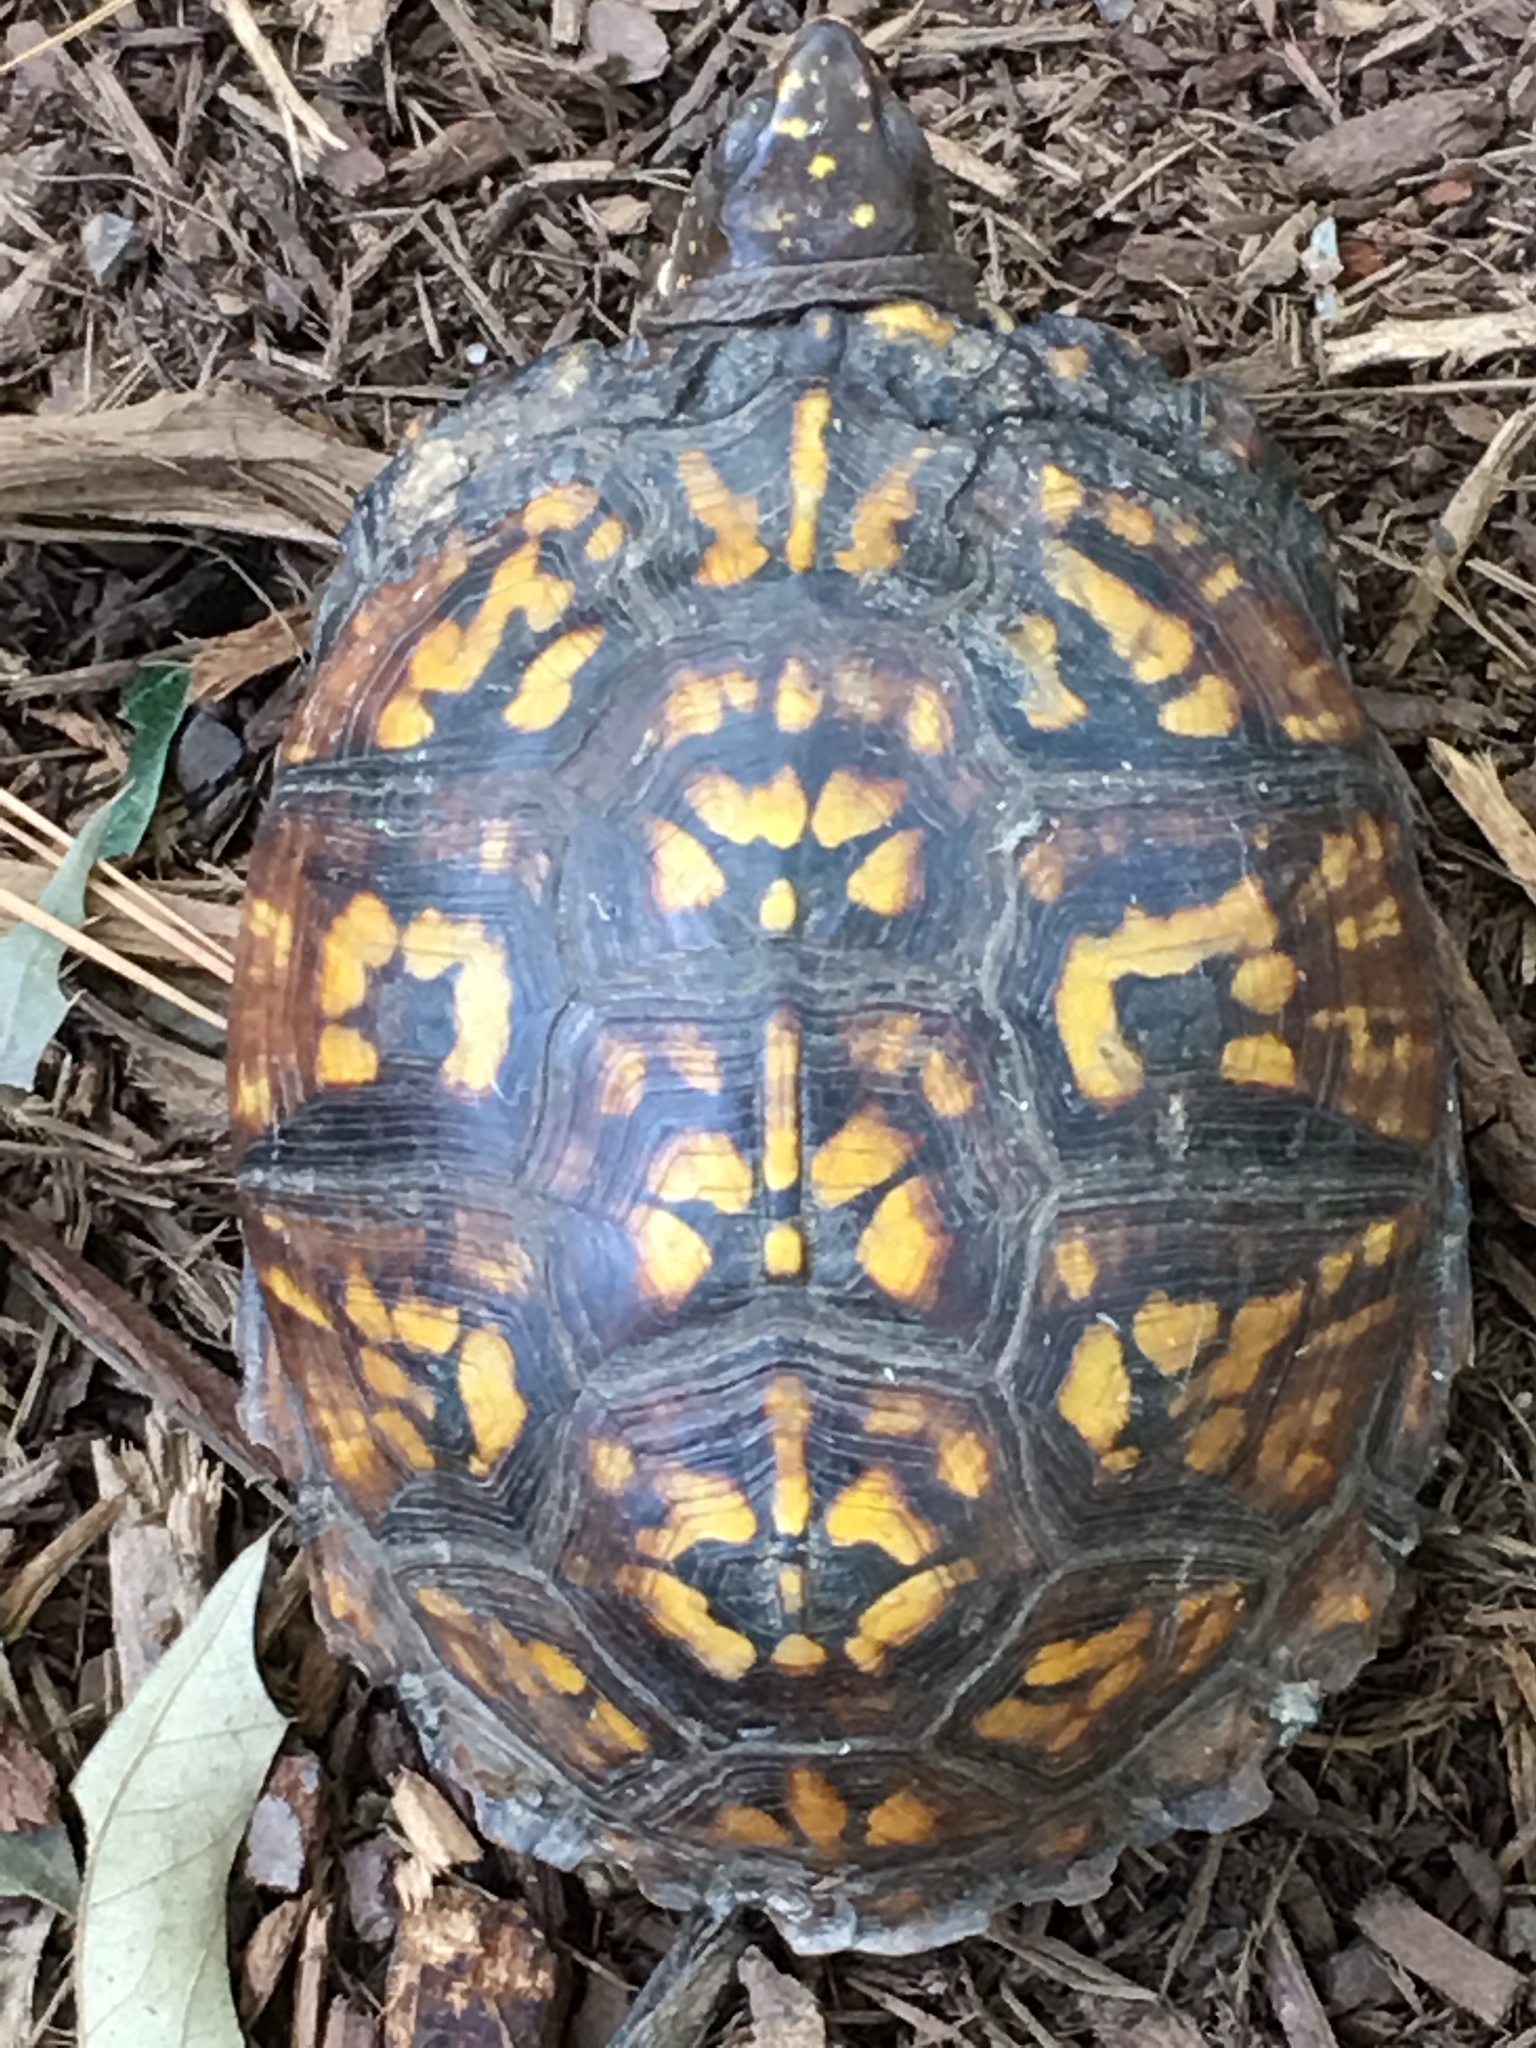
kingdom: Animalia
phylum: Chordata
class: Testudines
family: Emydidae
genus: Terrapene
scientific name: Terrapene carolina
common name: Common box turtle
